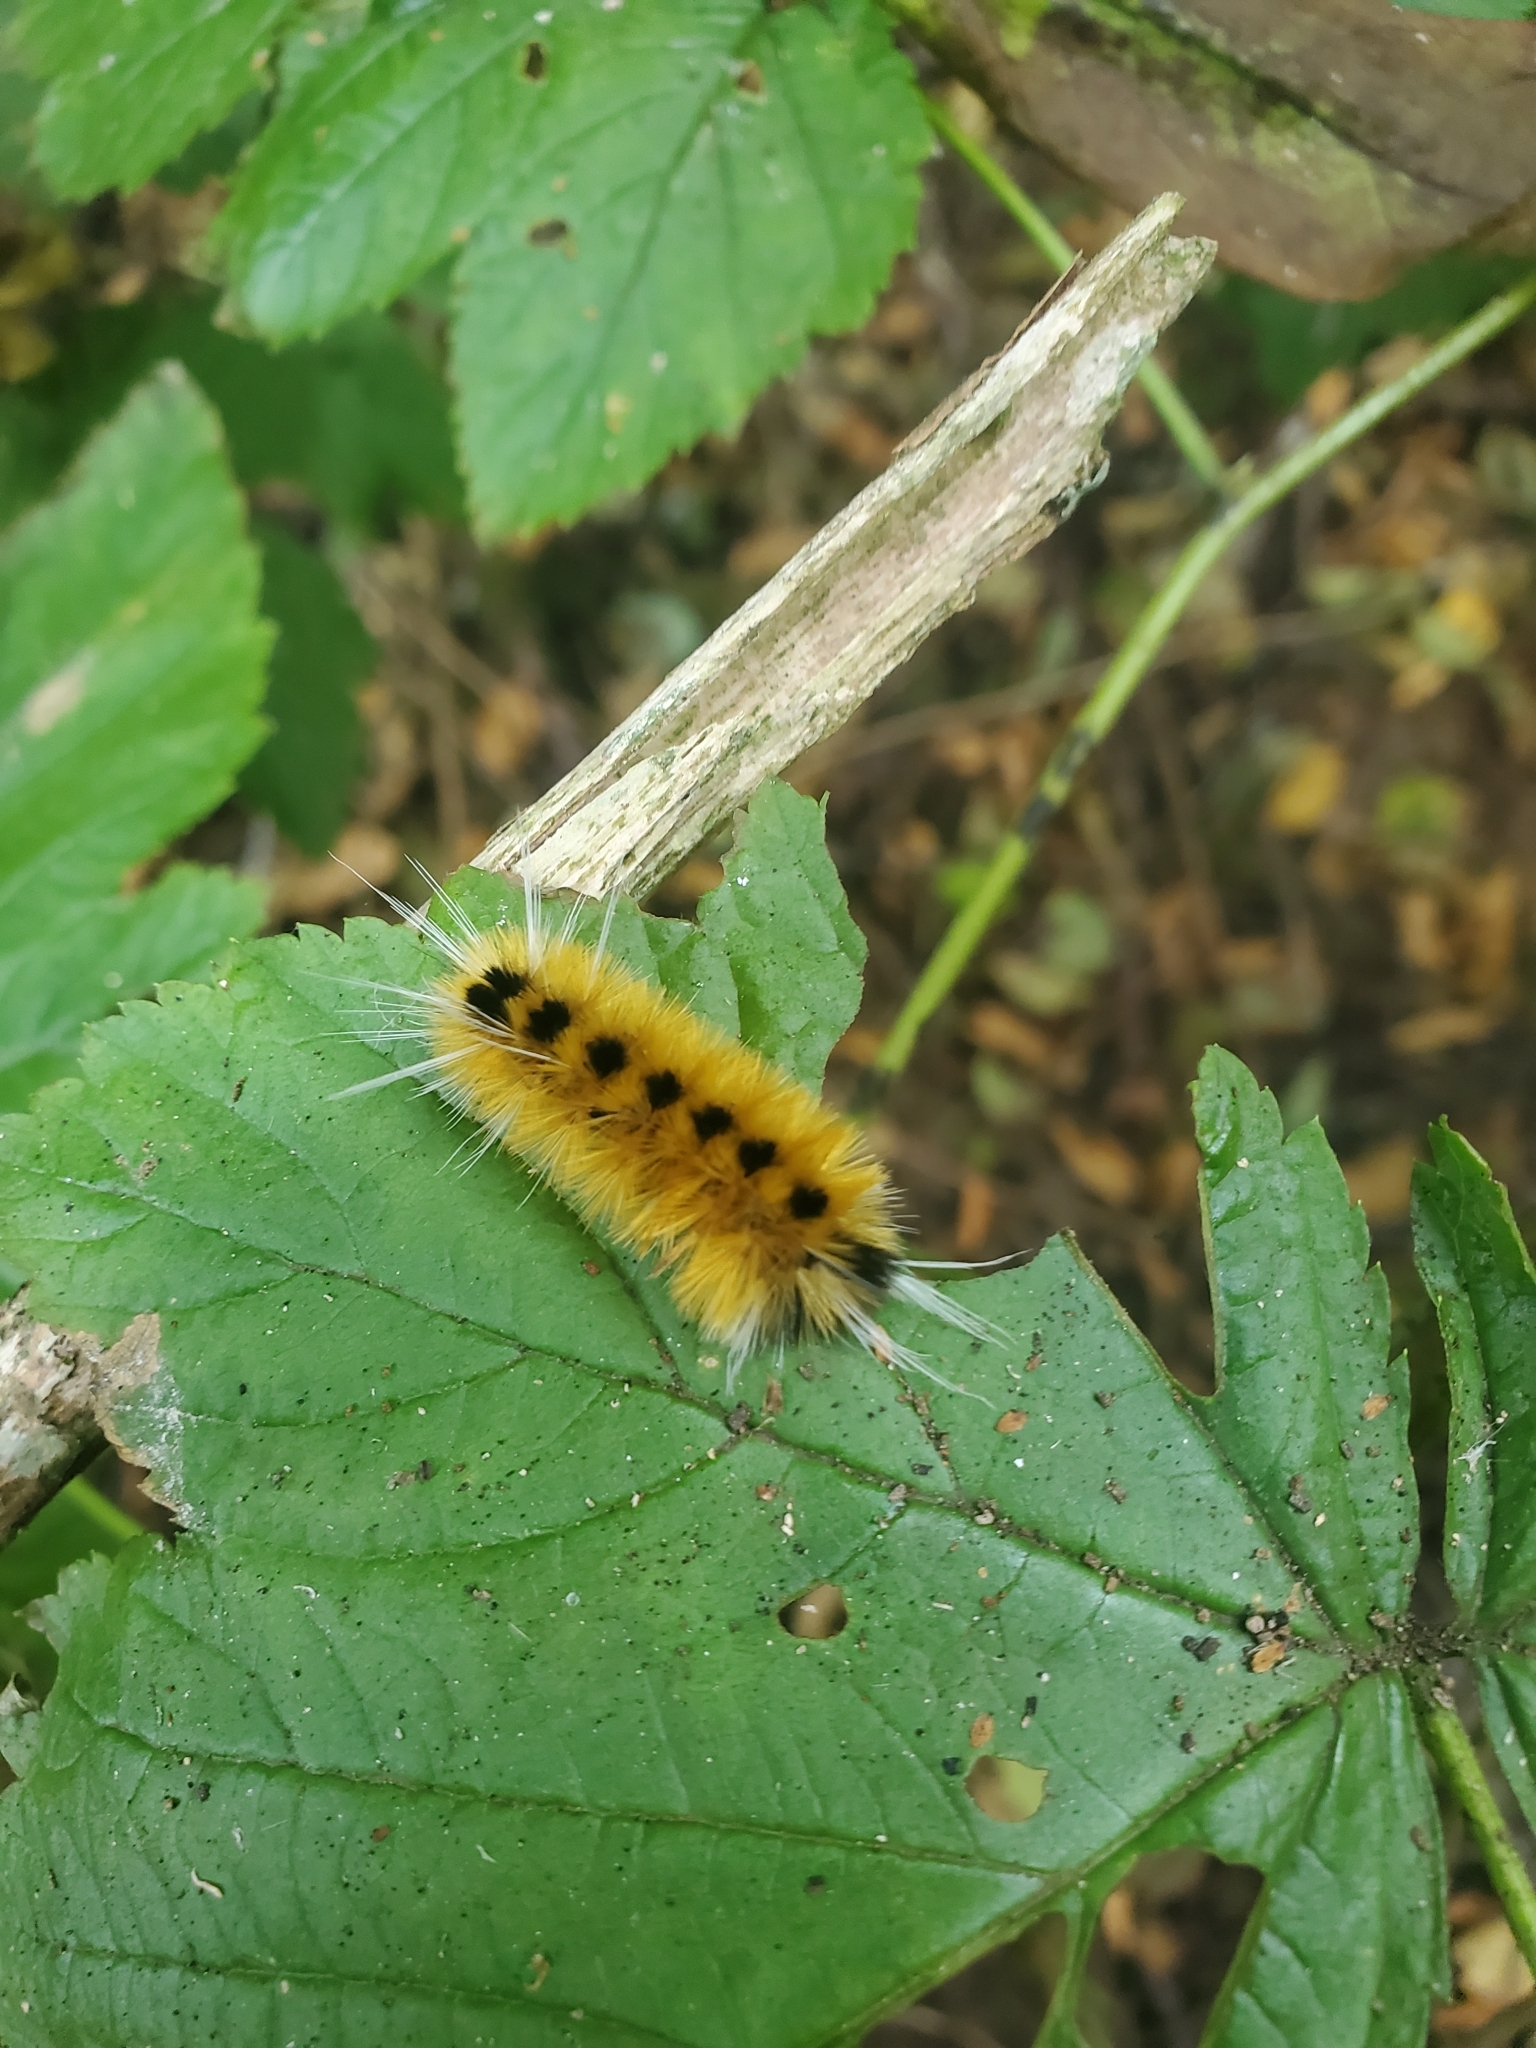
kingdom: Animalia
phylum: Arthropoda
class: Insecta
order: Lepidoptera
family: Erebidae
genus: Lophocampa
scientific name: Lophocampa maculata
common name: Spotted tussock moth
